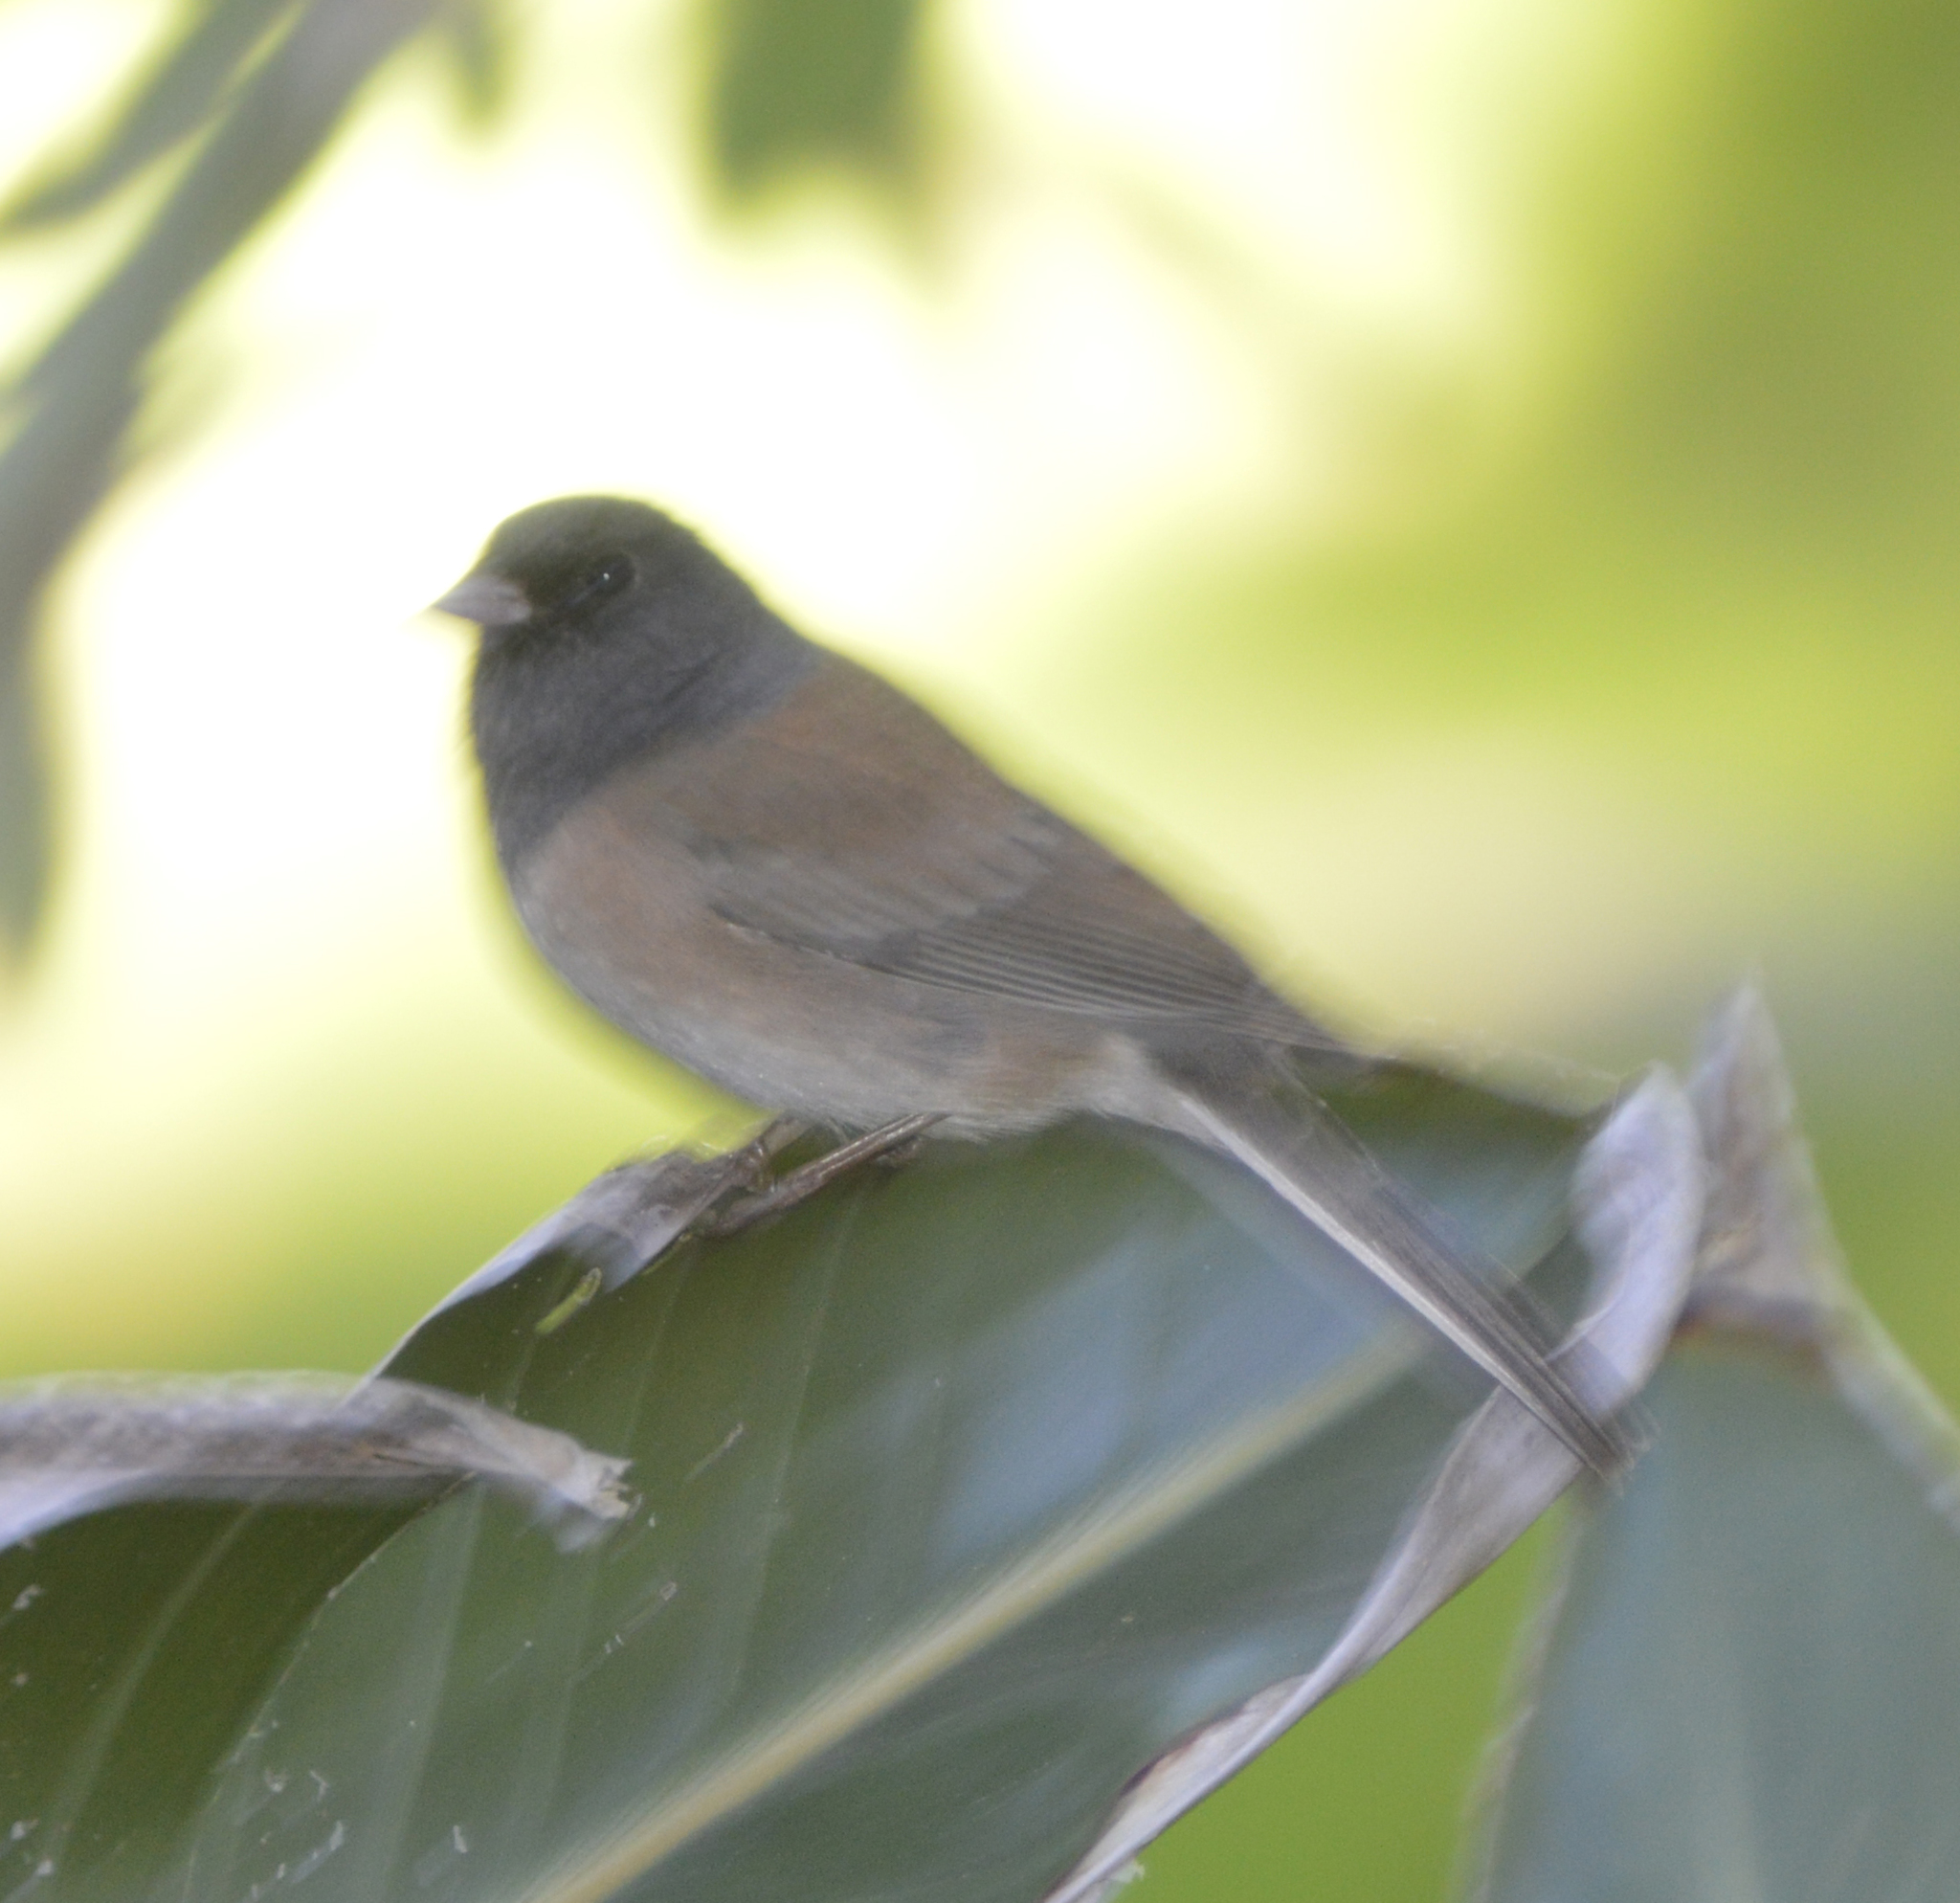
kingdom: Animalia
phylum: Chordata
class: Aves
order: Passeriformes
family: Passerellidae
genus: Junco
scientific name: Junco hyemalis
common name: Dark-eyed junco
